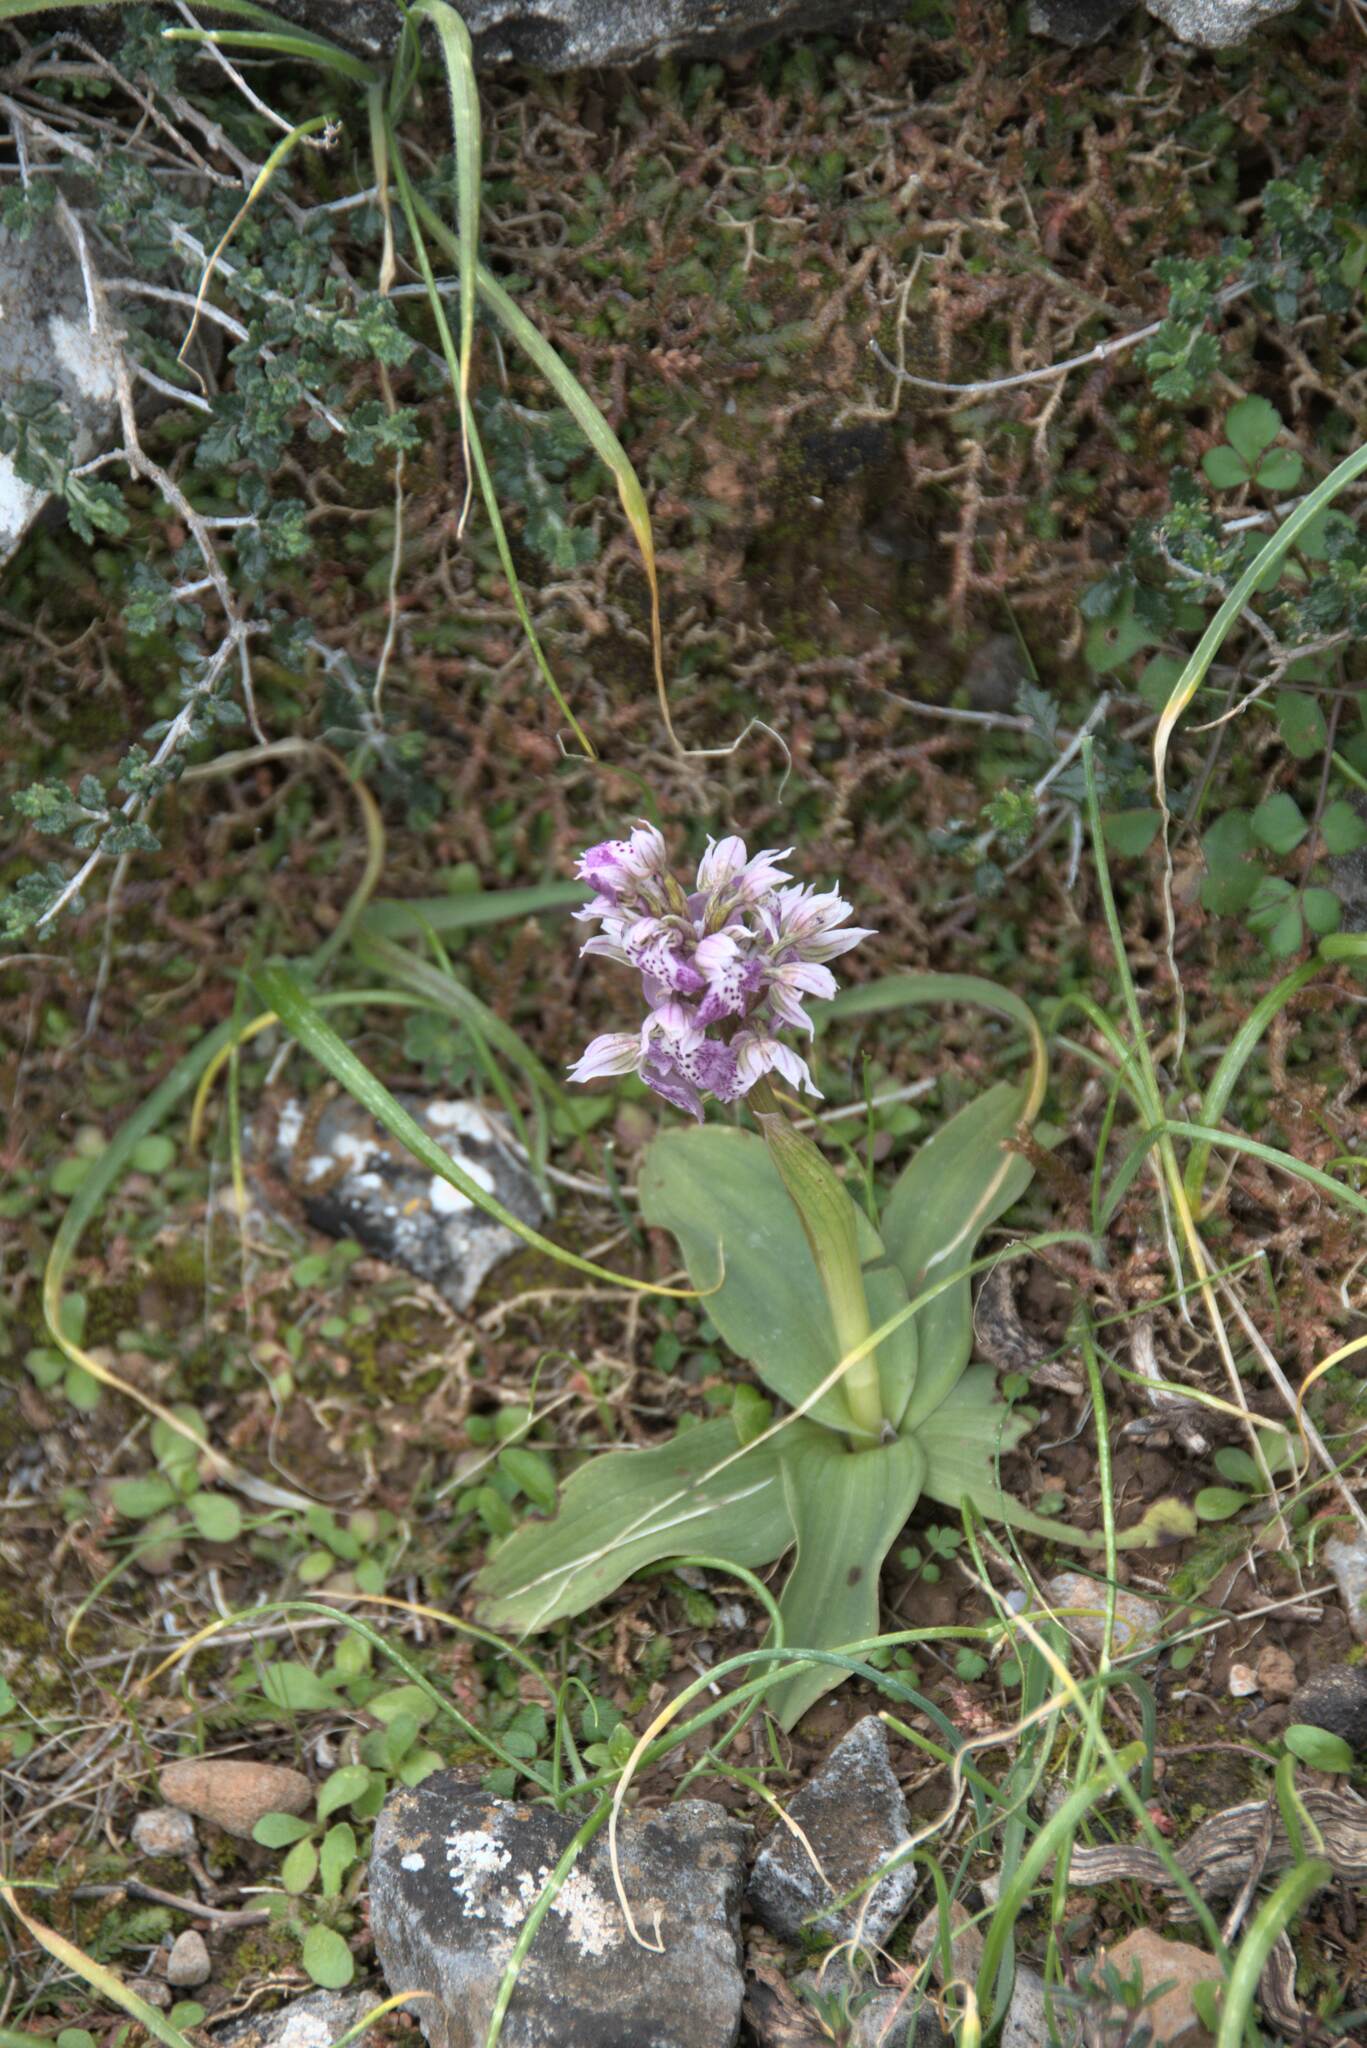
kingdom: Plantae
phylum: Tracheophyta
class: Liliopsida
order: Asparagales
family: Orchidaceae
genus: Neotinea
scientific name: Neotinea lactea
